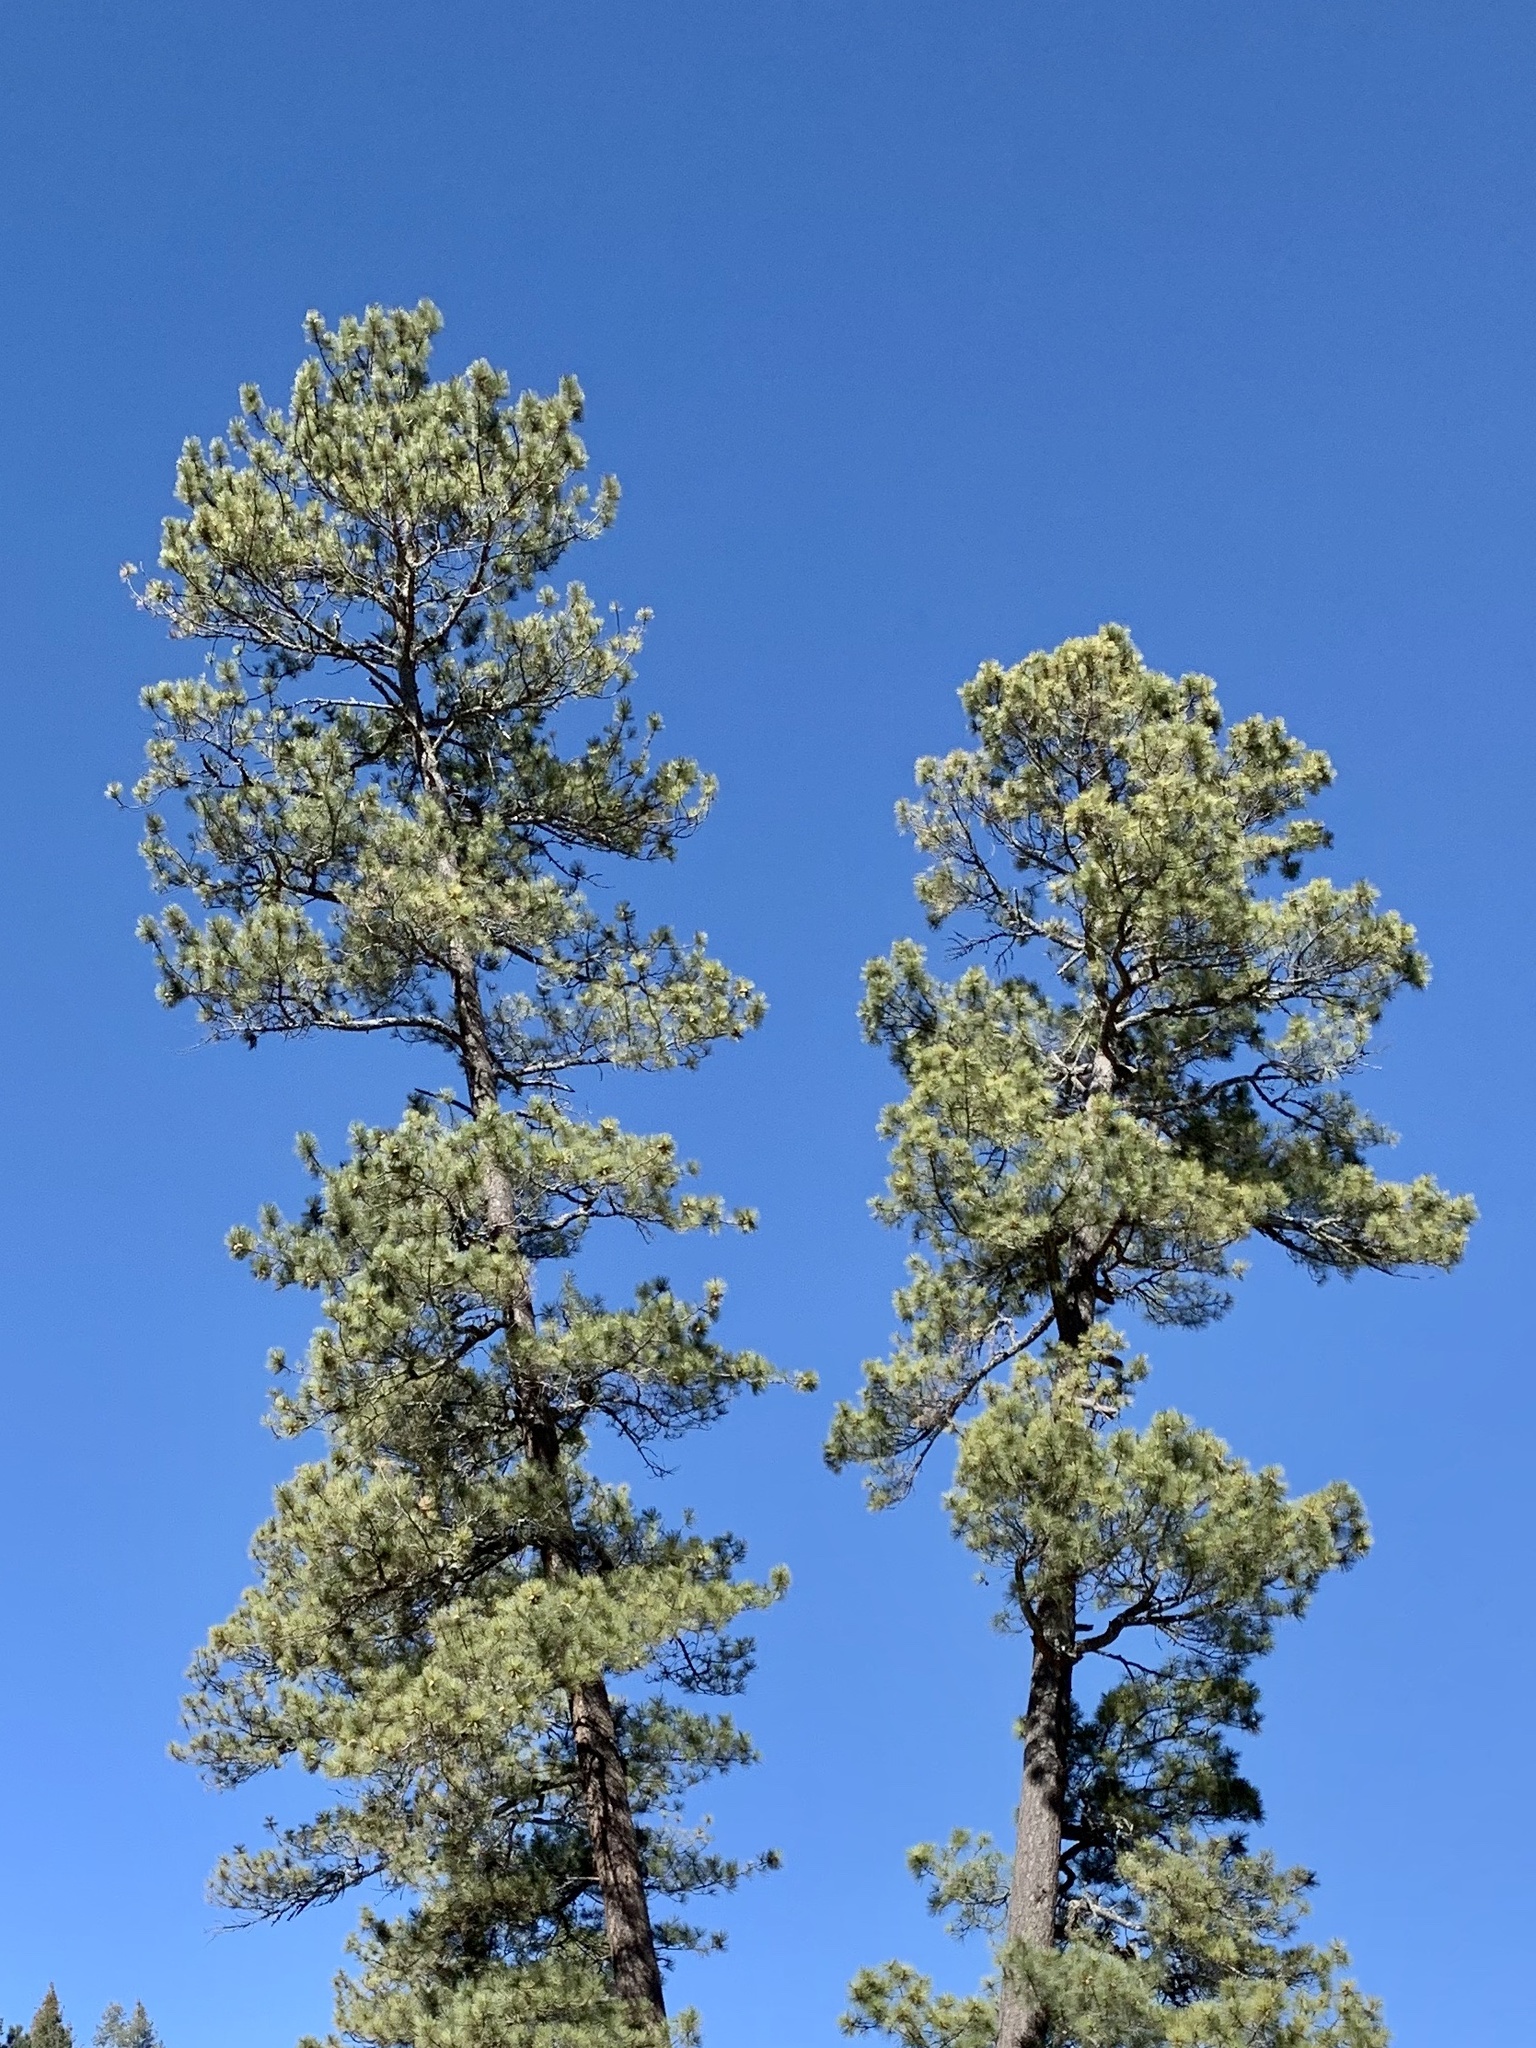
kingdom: Plantae
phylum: Tracheophyta
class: Pinopsida
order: Pinales
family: Pinaceae
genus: Pinus
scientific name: Pinus ponderosa
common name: Western yellow-pine
